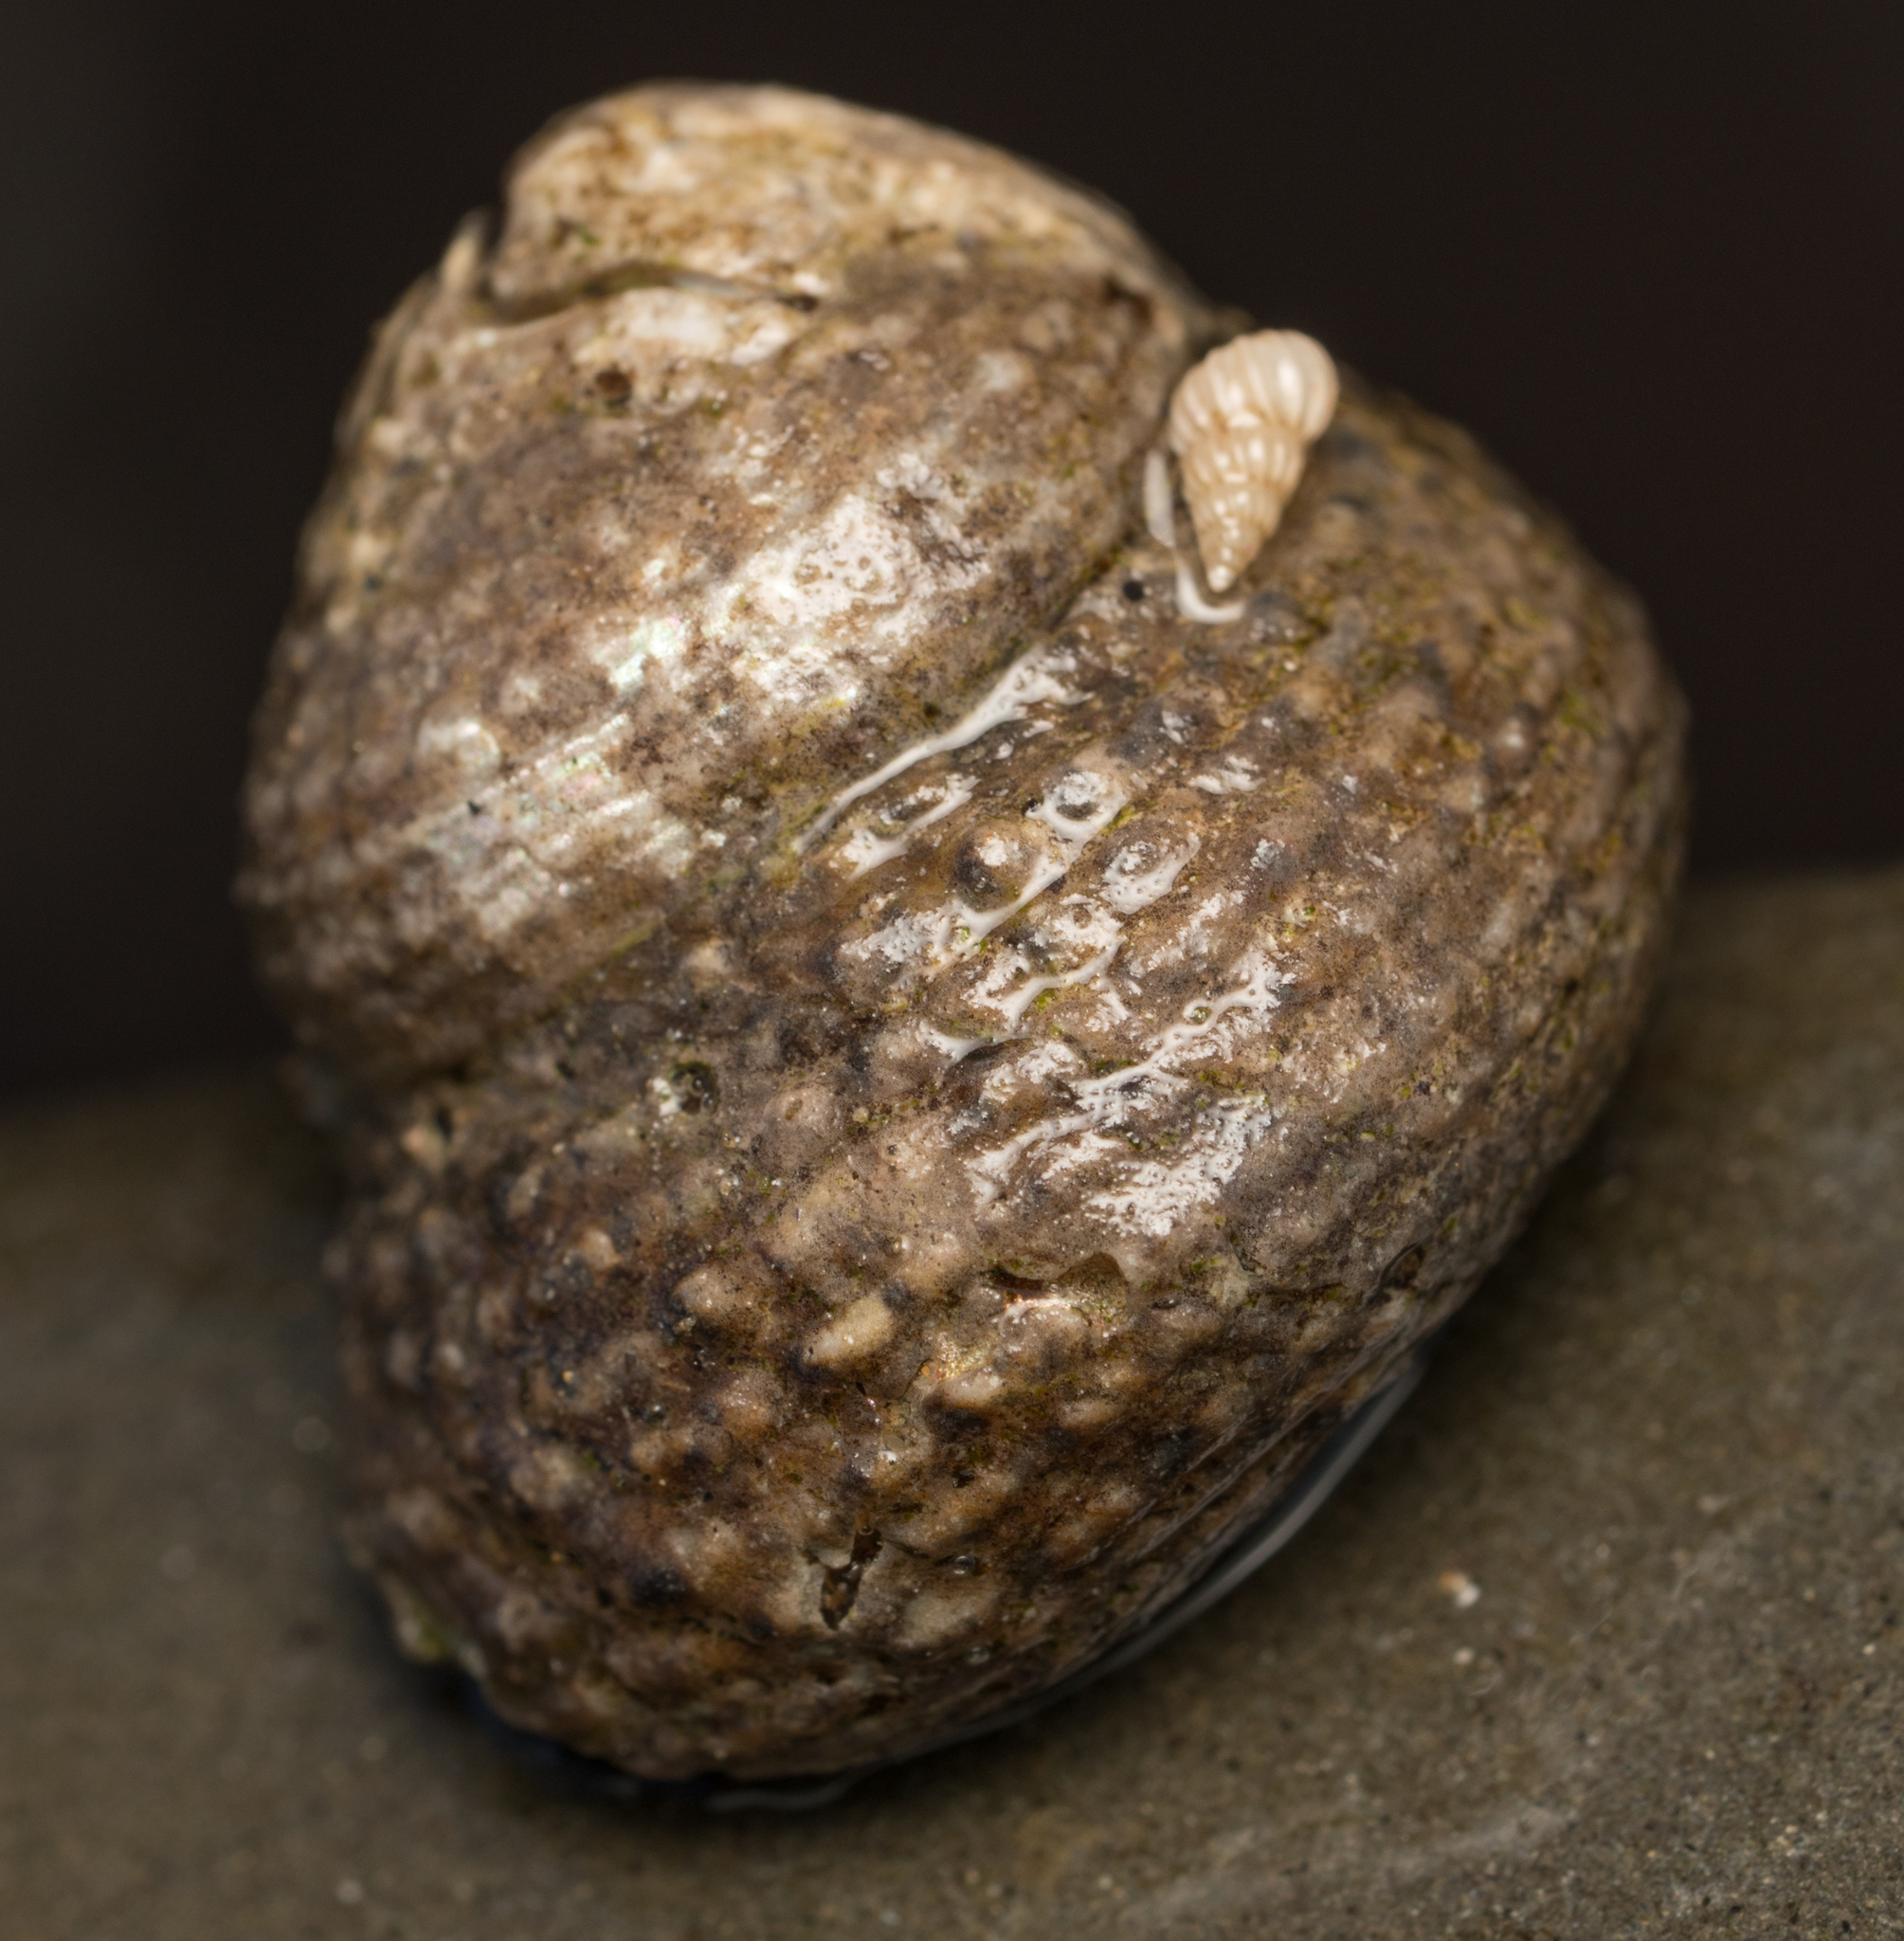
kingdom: Animalia
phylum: Mollusca
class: Gastropoda
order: Trochida
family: Tegulidae
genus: Tegula
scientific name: Tegula eiseni
